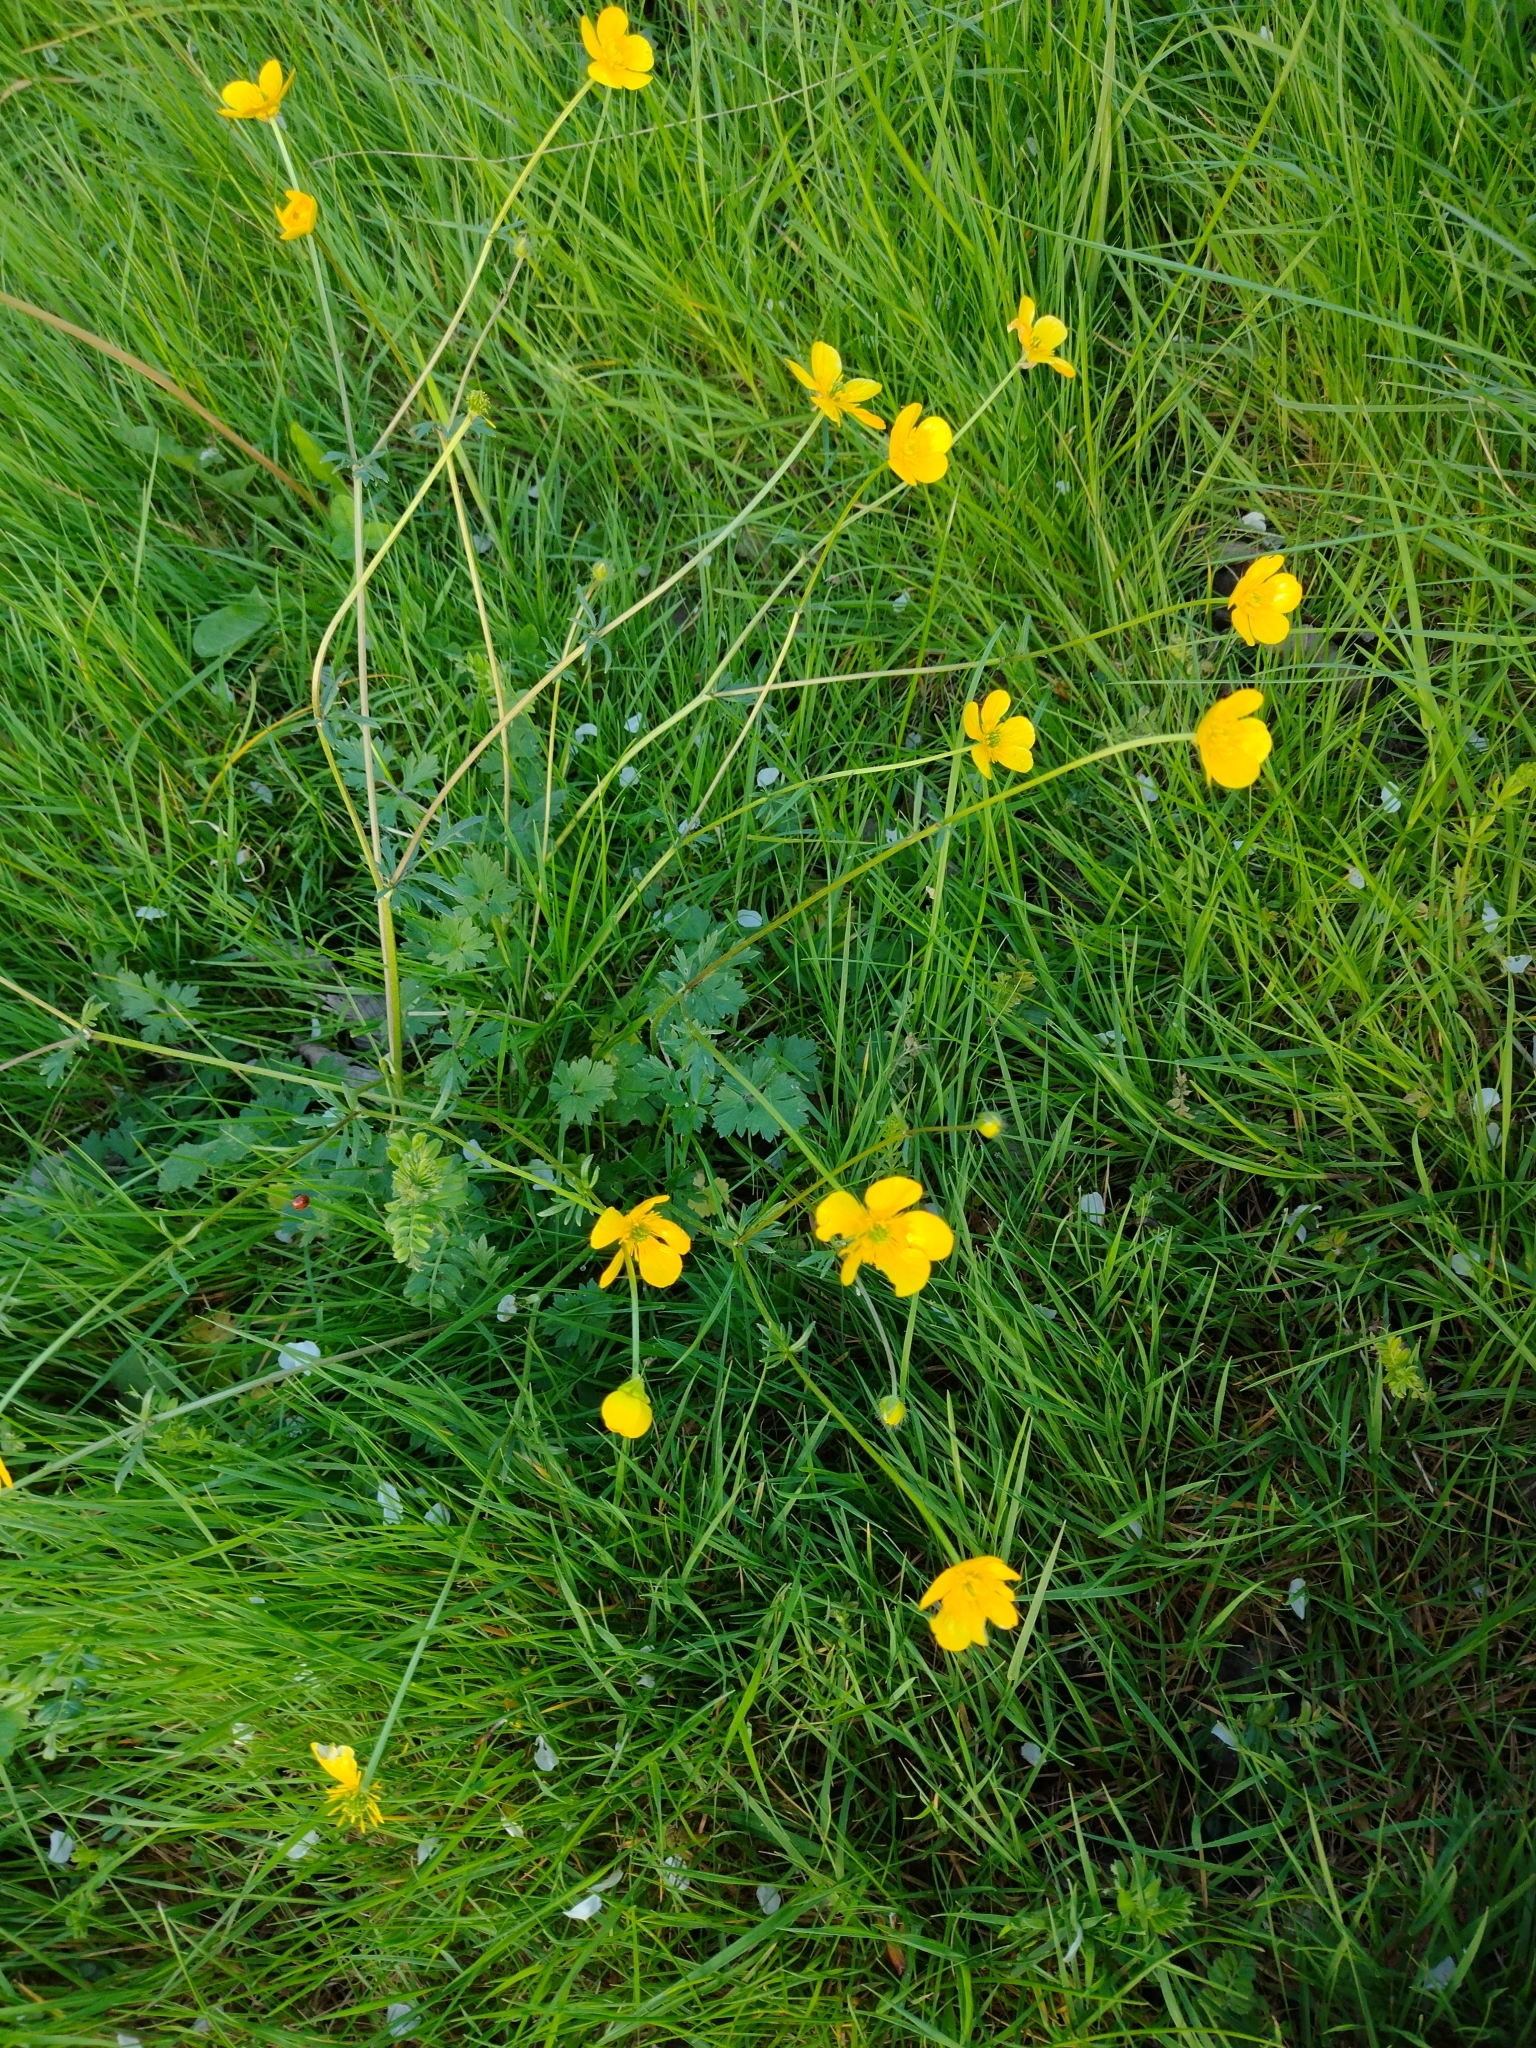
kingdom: Plantae
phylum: Tracheophyta
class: Magnoliopsida
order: Ranunculales
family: Ranunculaceae
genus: Ranunculus
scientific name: Ranunculus bulbosus
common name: Bulbous buttercup
